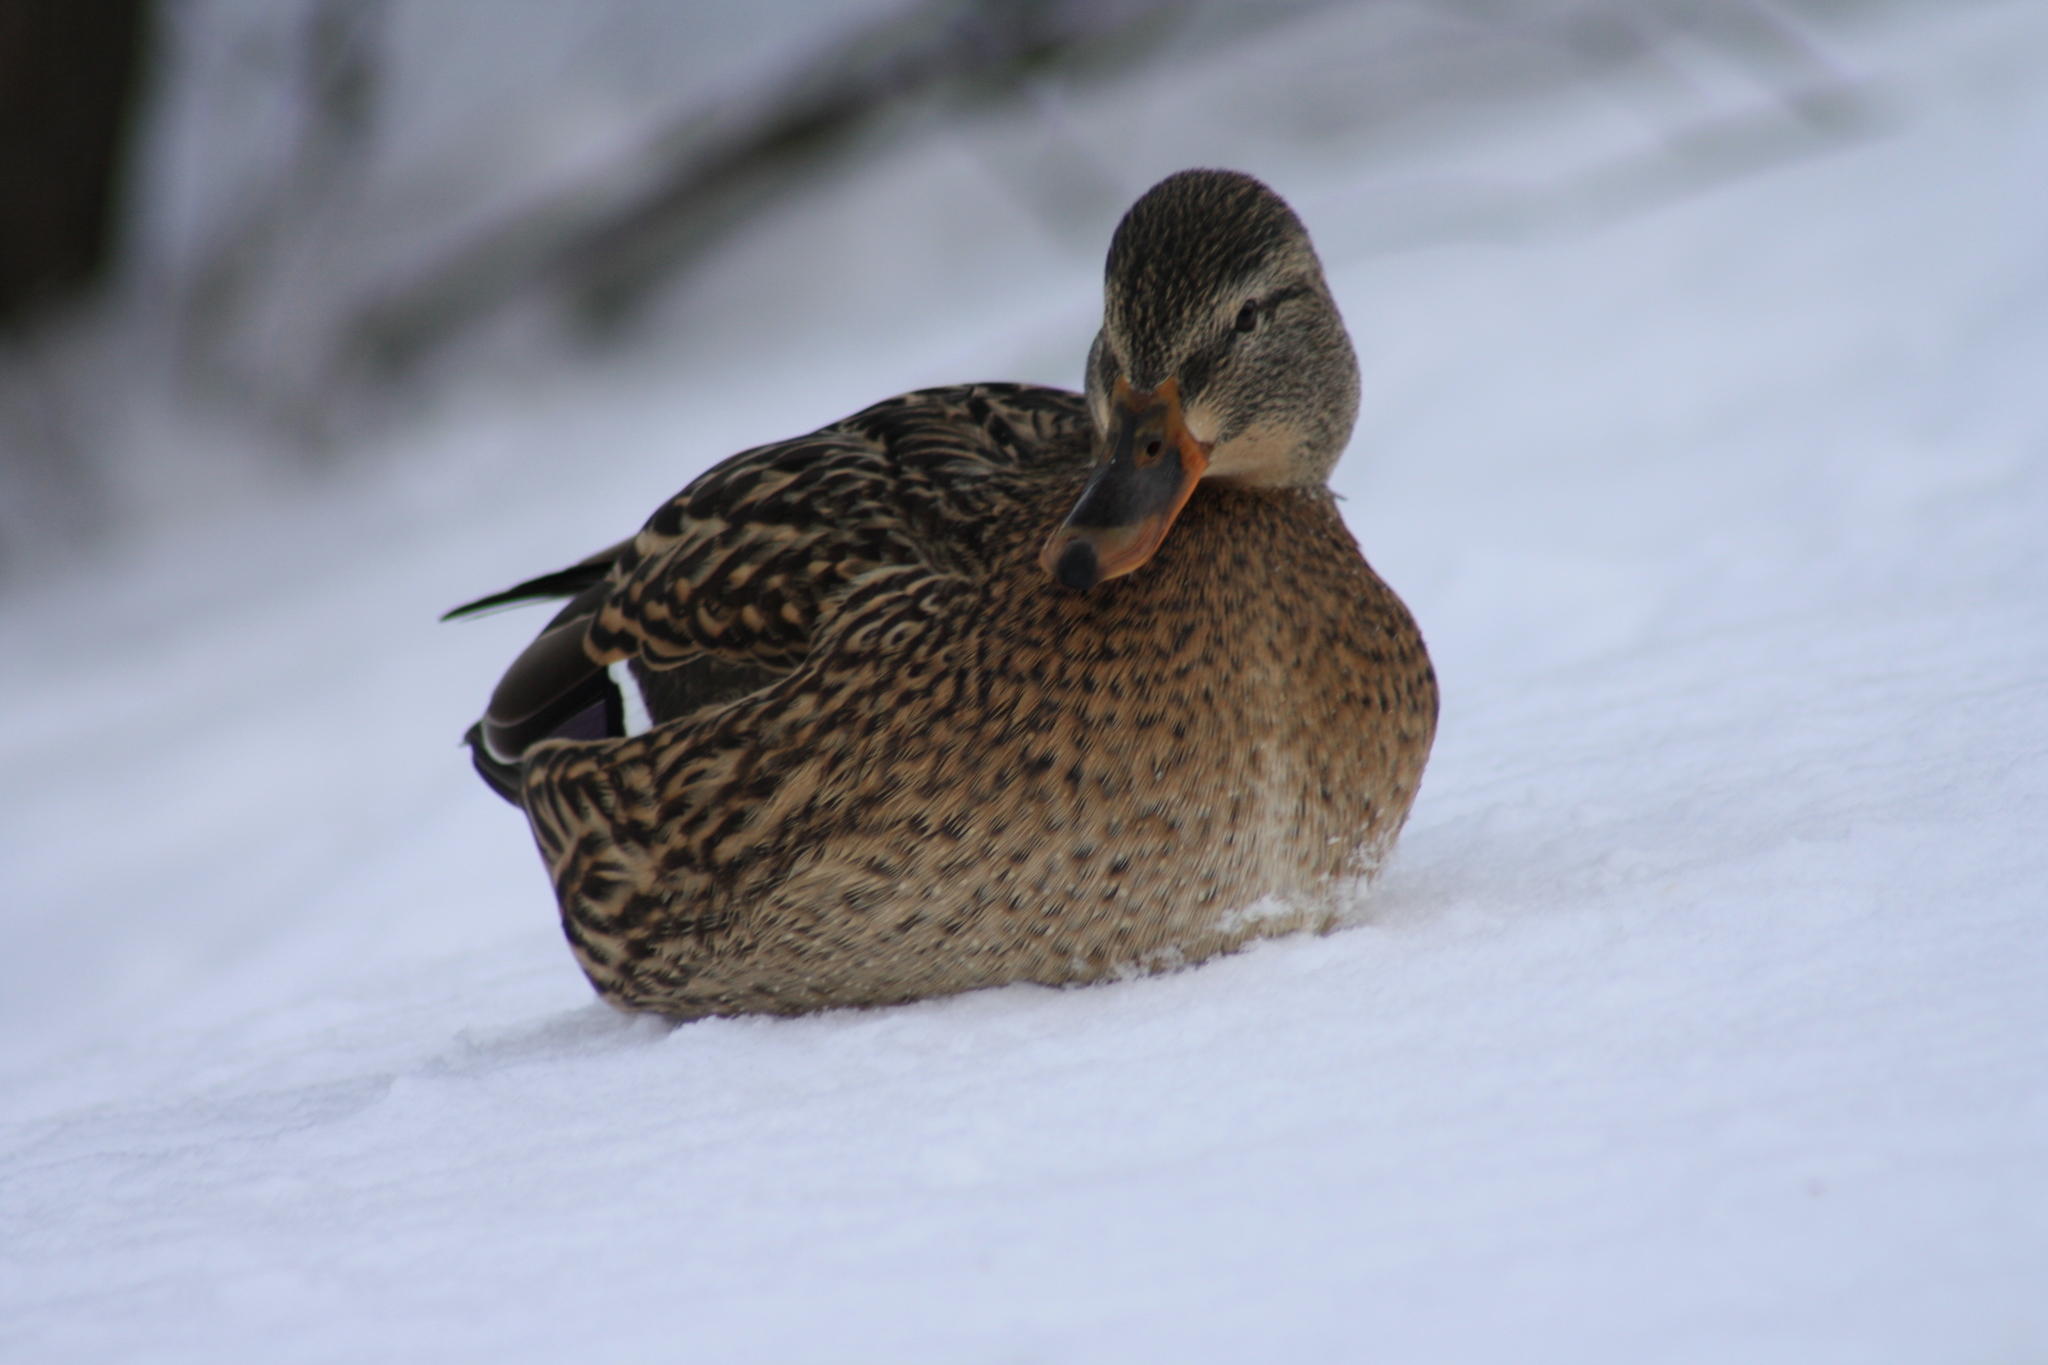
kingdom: Animalia
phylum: Chordata
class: Aves
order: Anseriformes
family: Anatidae
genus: Anas
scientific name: Anas platyrhynchos
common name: Mallard
